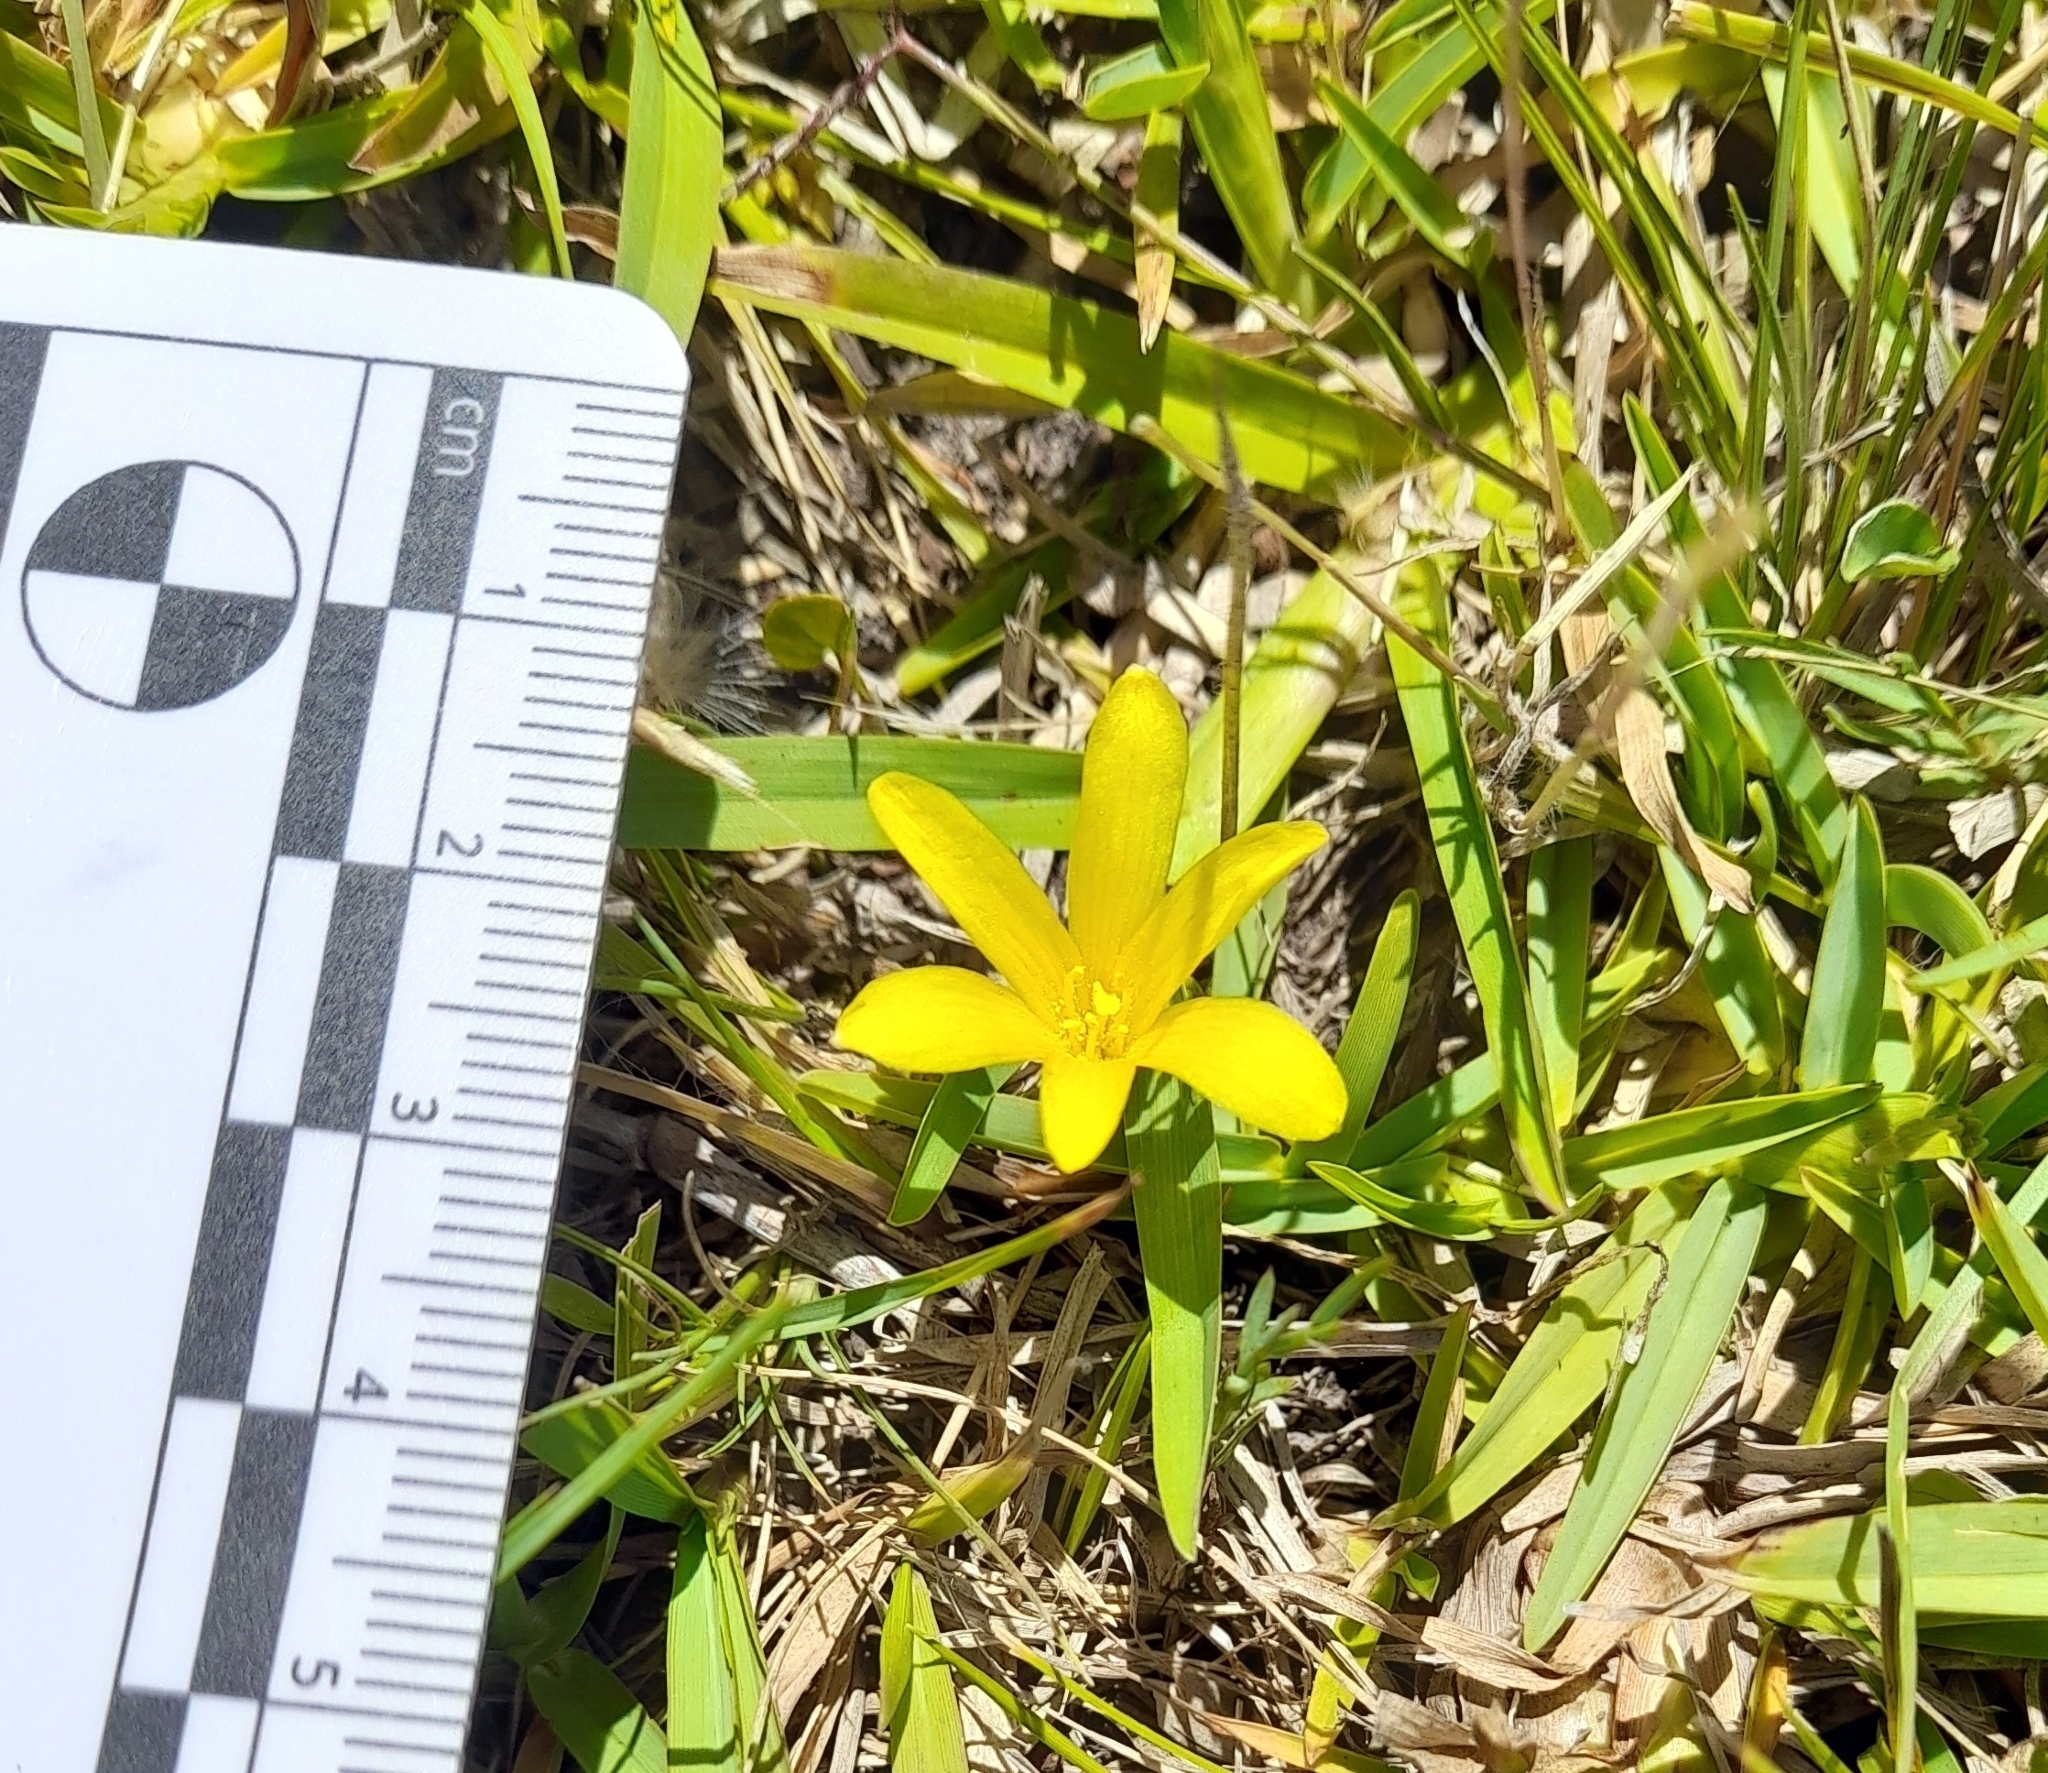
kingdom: Plantae
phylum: Tracheophyta
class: Liliopsida
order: Asparagales
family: Amaryllidaceae
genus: Zephyranthes
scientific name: Zephyranthes americana
